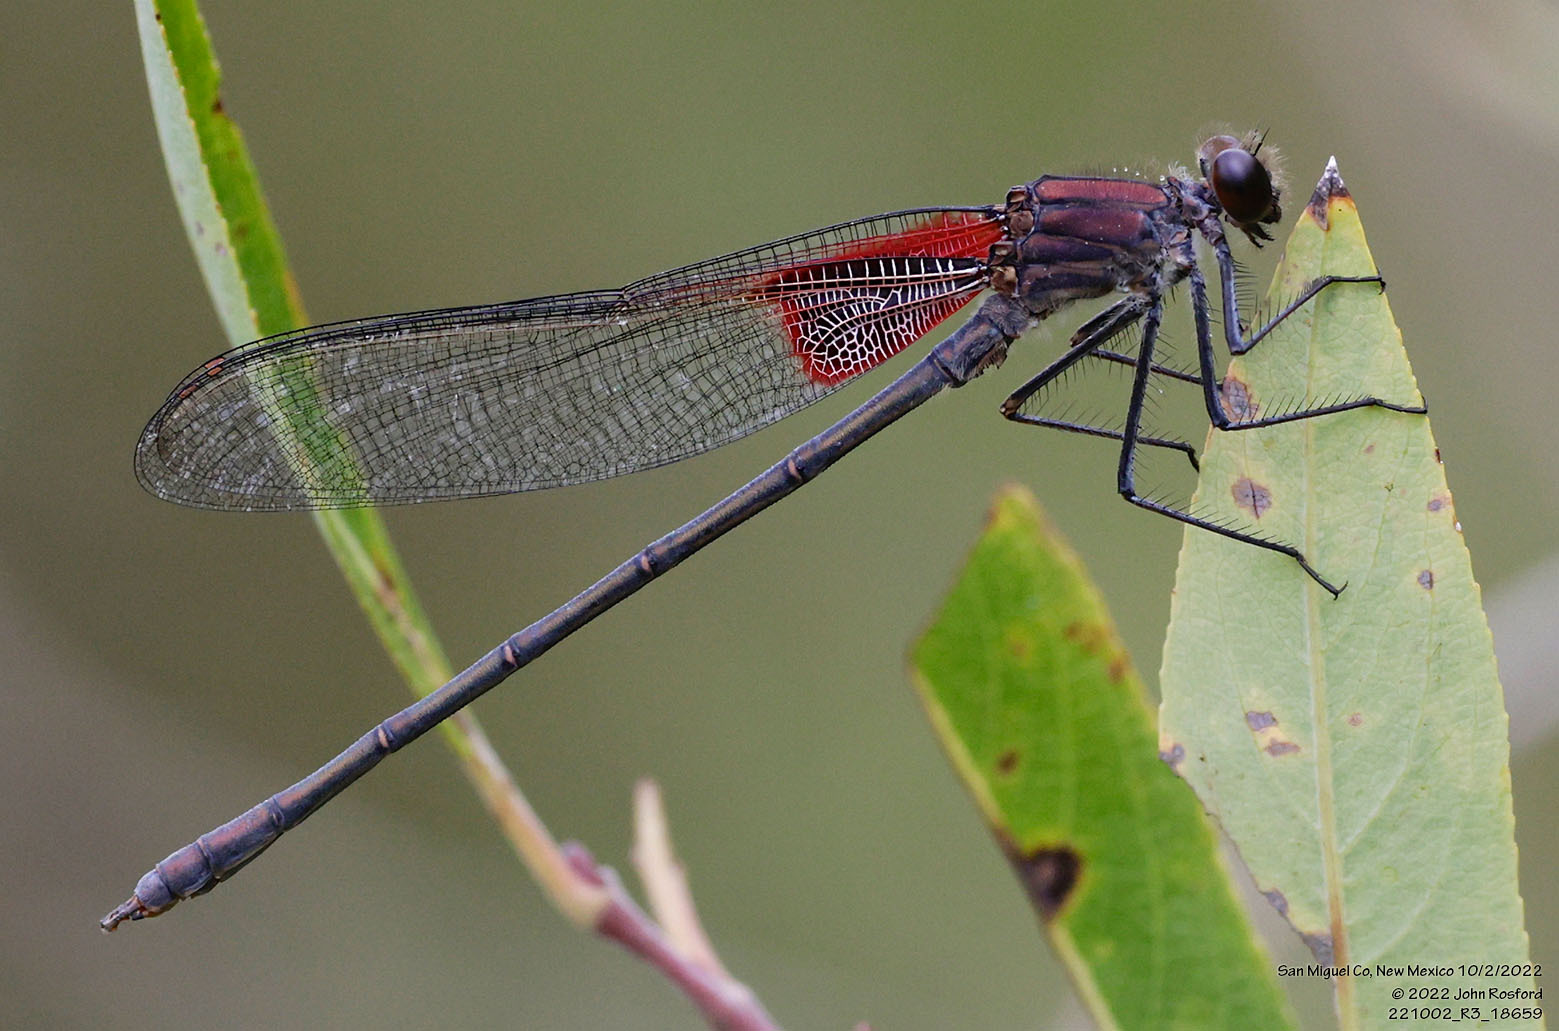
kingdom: Animalia
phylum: Arthropoda
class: Insecta
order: Odonata
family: Calopterygidae
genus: Hetaerina
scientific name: Hetaerina americana
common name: American rubyspot
